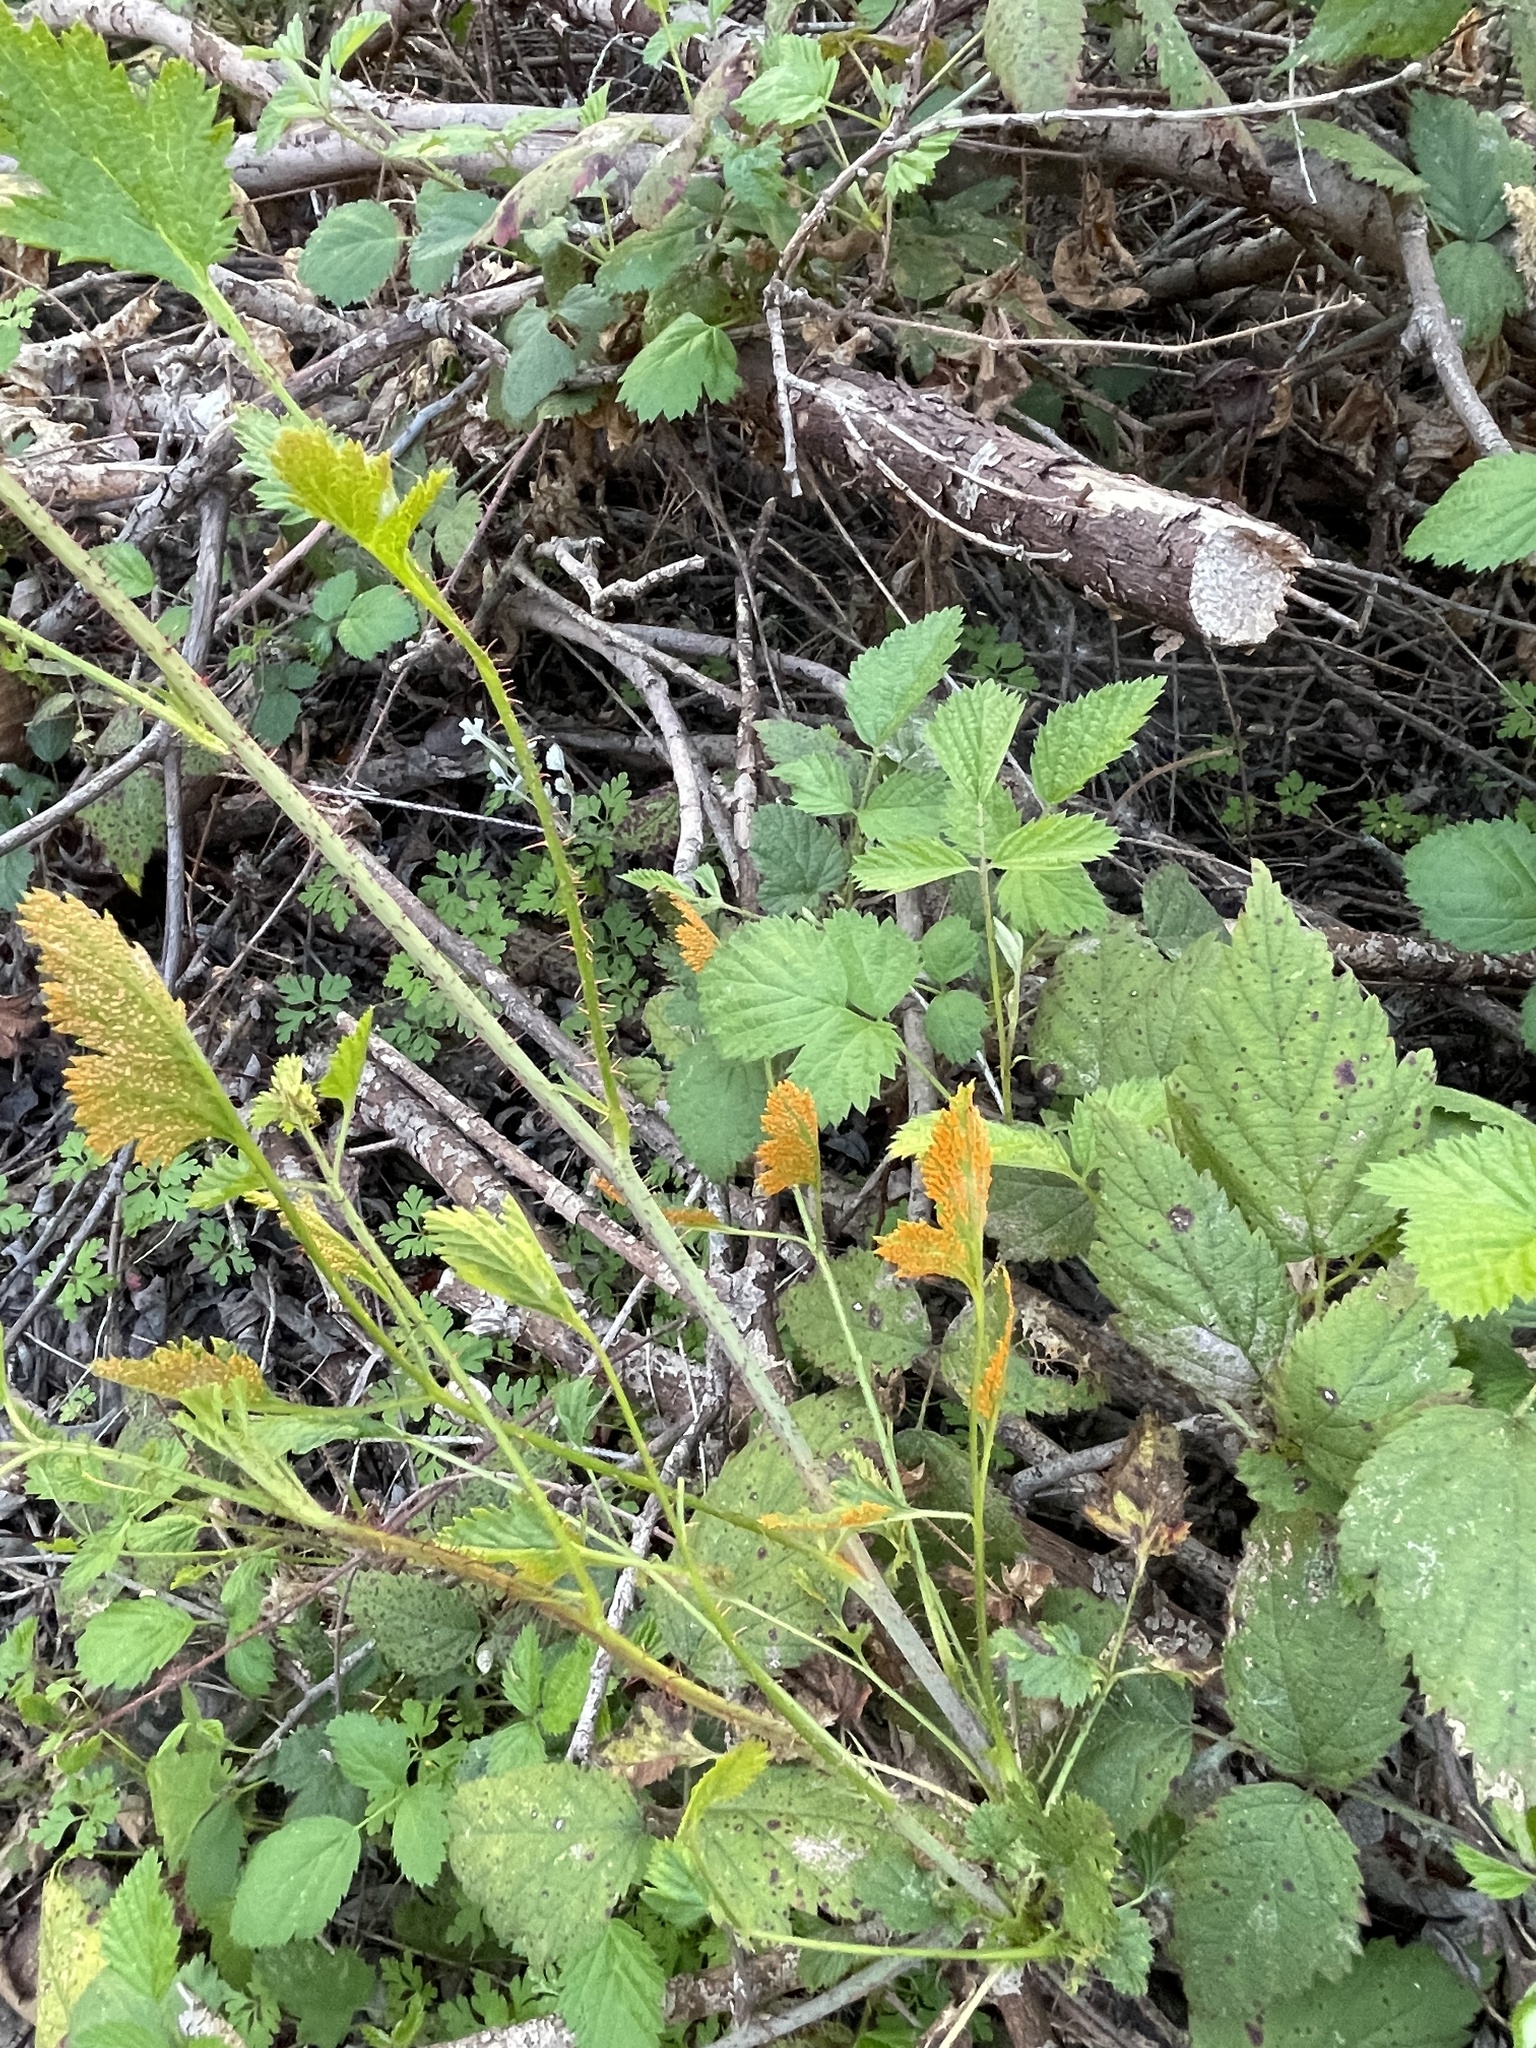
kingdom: Fungi
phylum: Basidiomycota
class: Pucciniomycetes
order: Pucciniales
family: Phragmidiaceae
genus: Arthuriomyces
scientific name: Arthuriomyces peckianus
